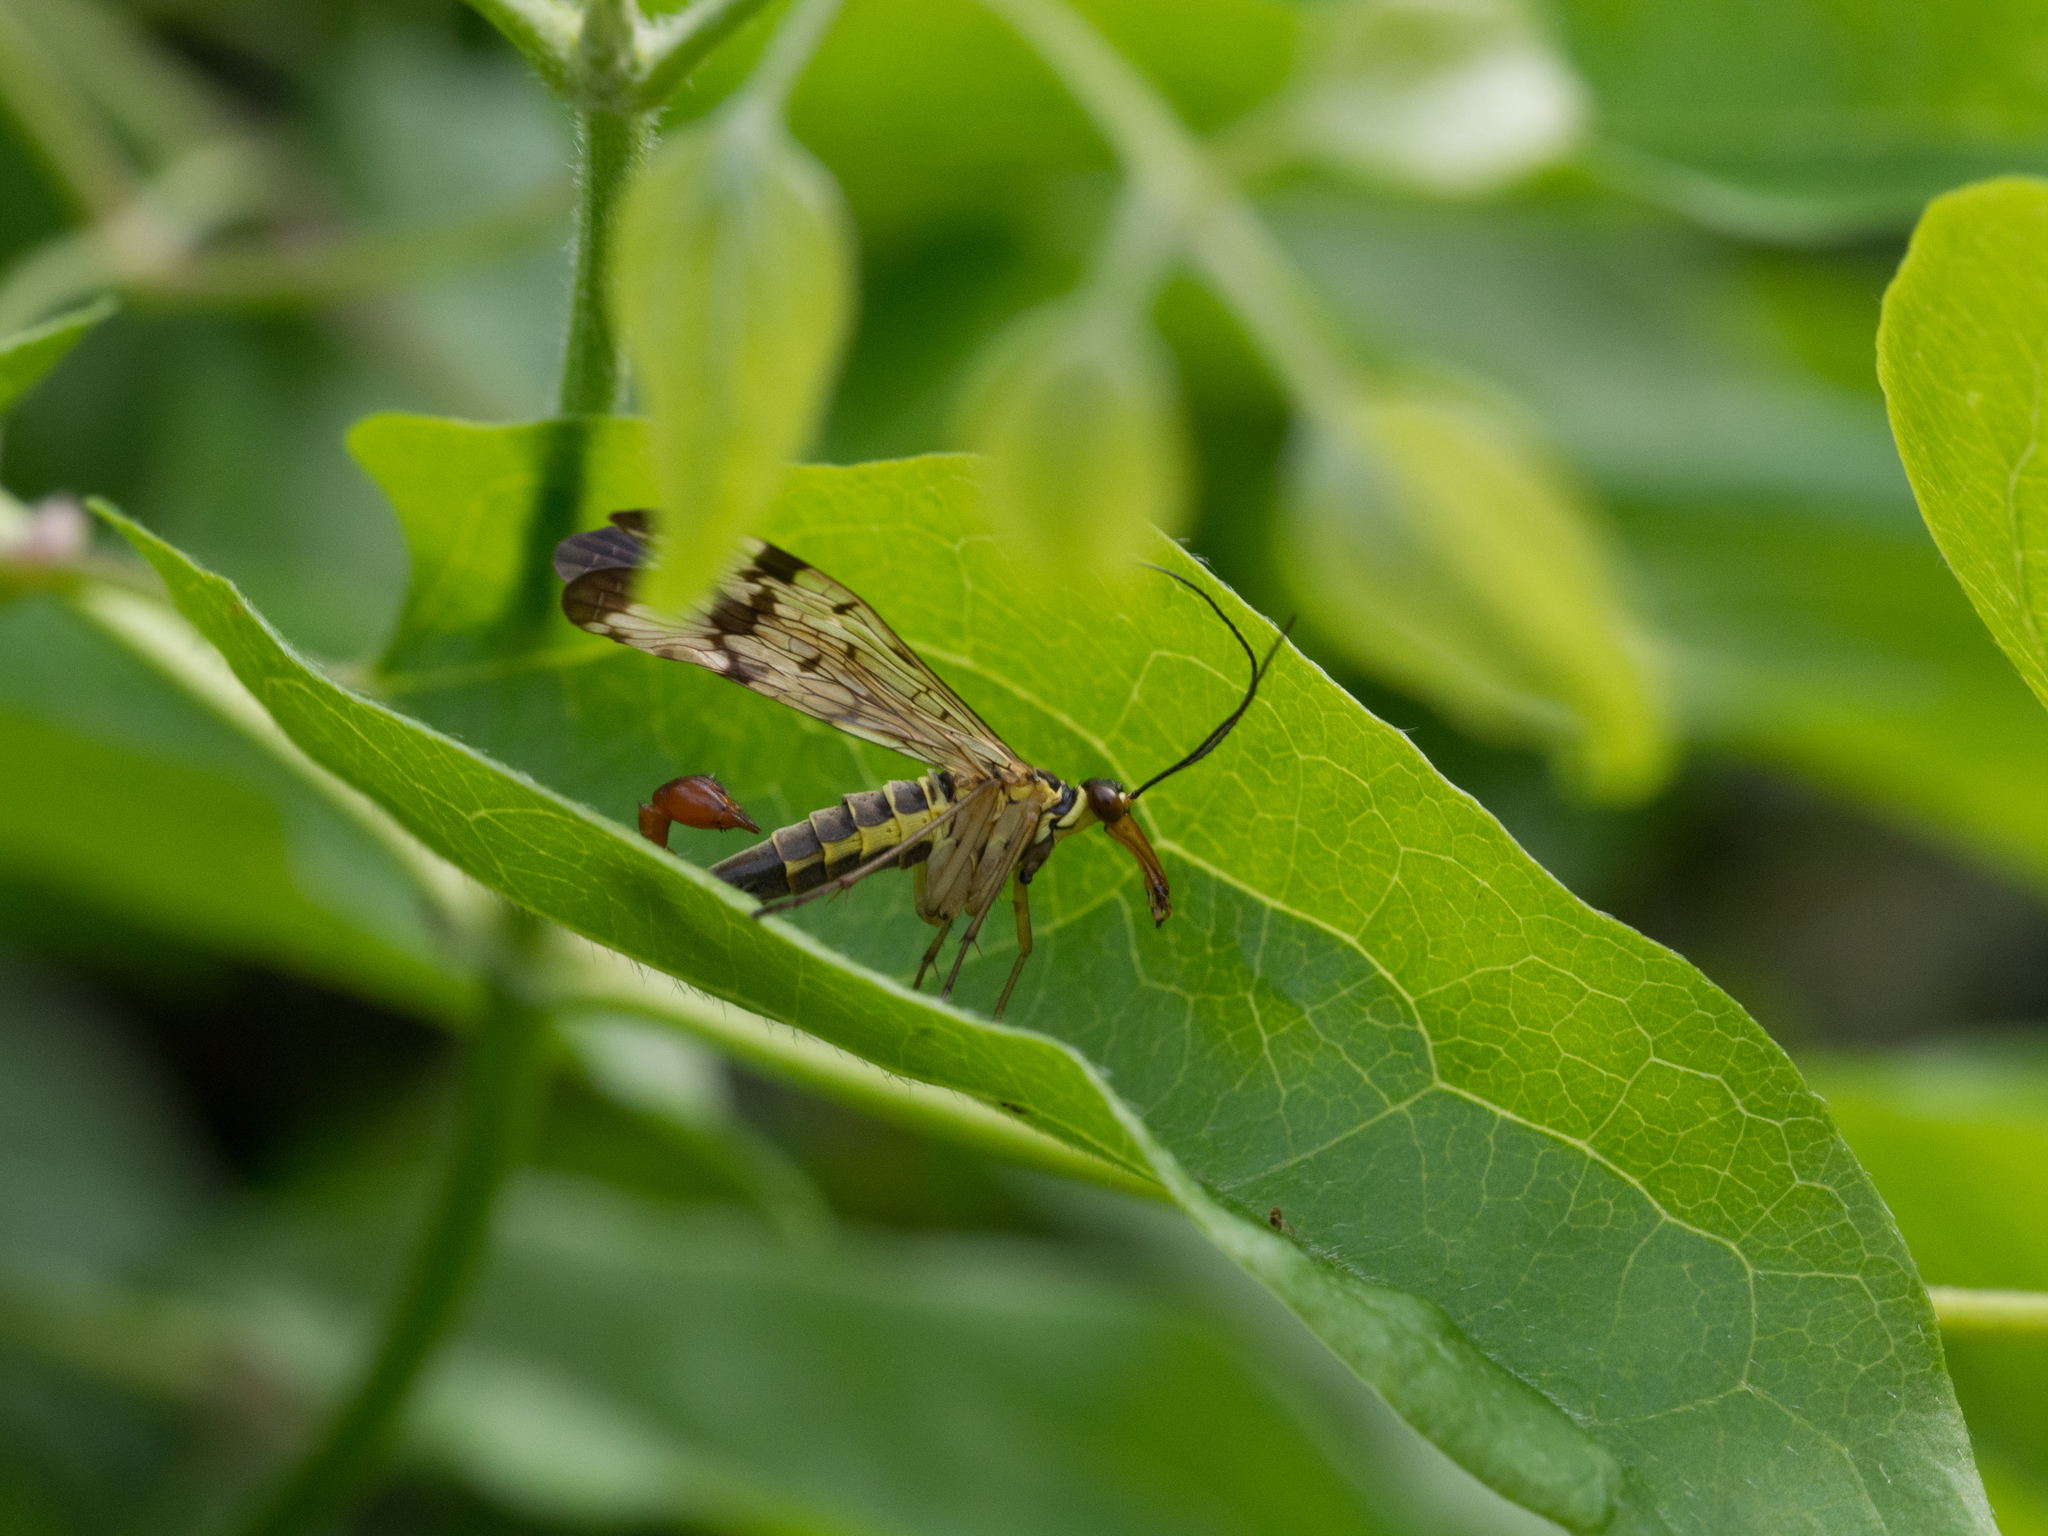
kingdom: Animalia
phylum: Arthropoda
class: Insecta
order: Mecoptera
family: Panorpidae
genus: Panorpa
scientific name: Panorpa communis
